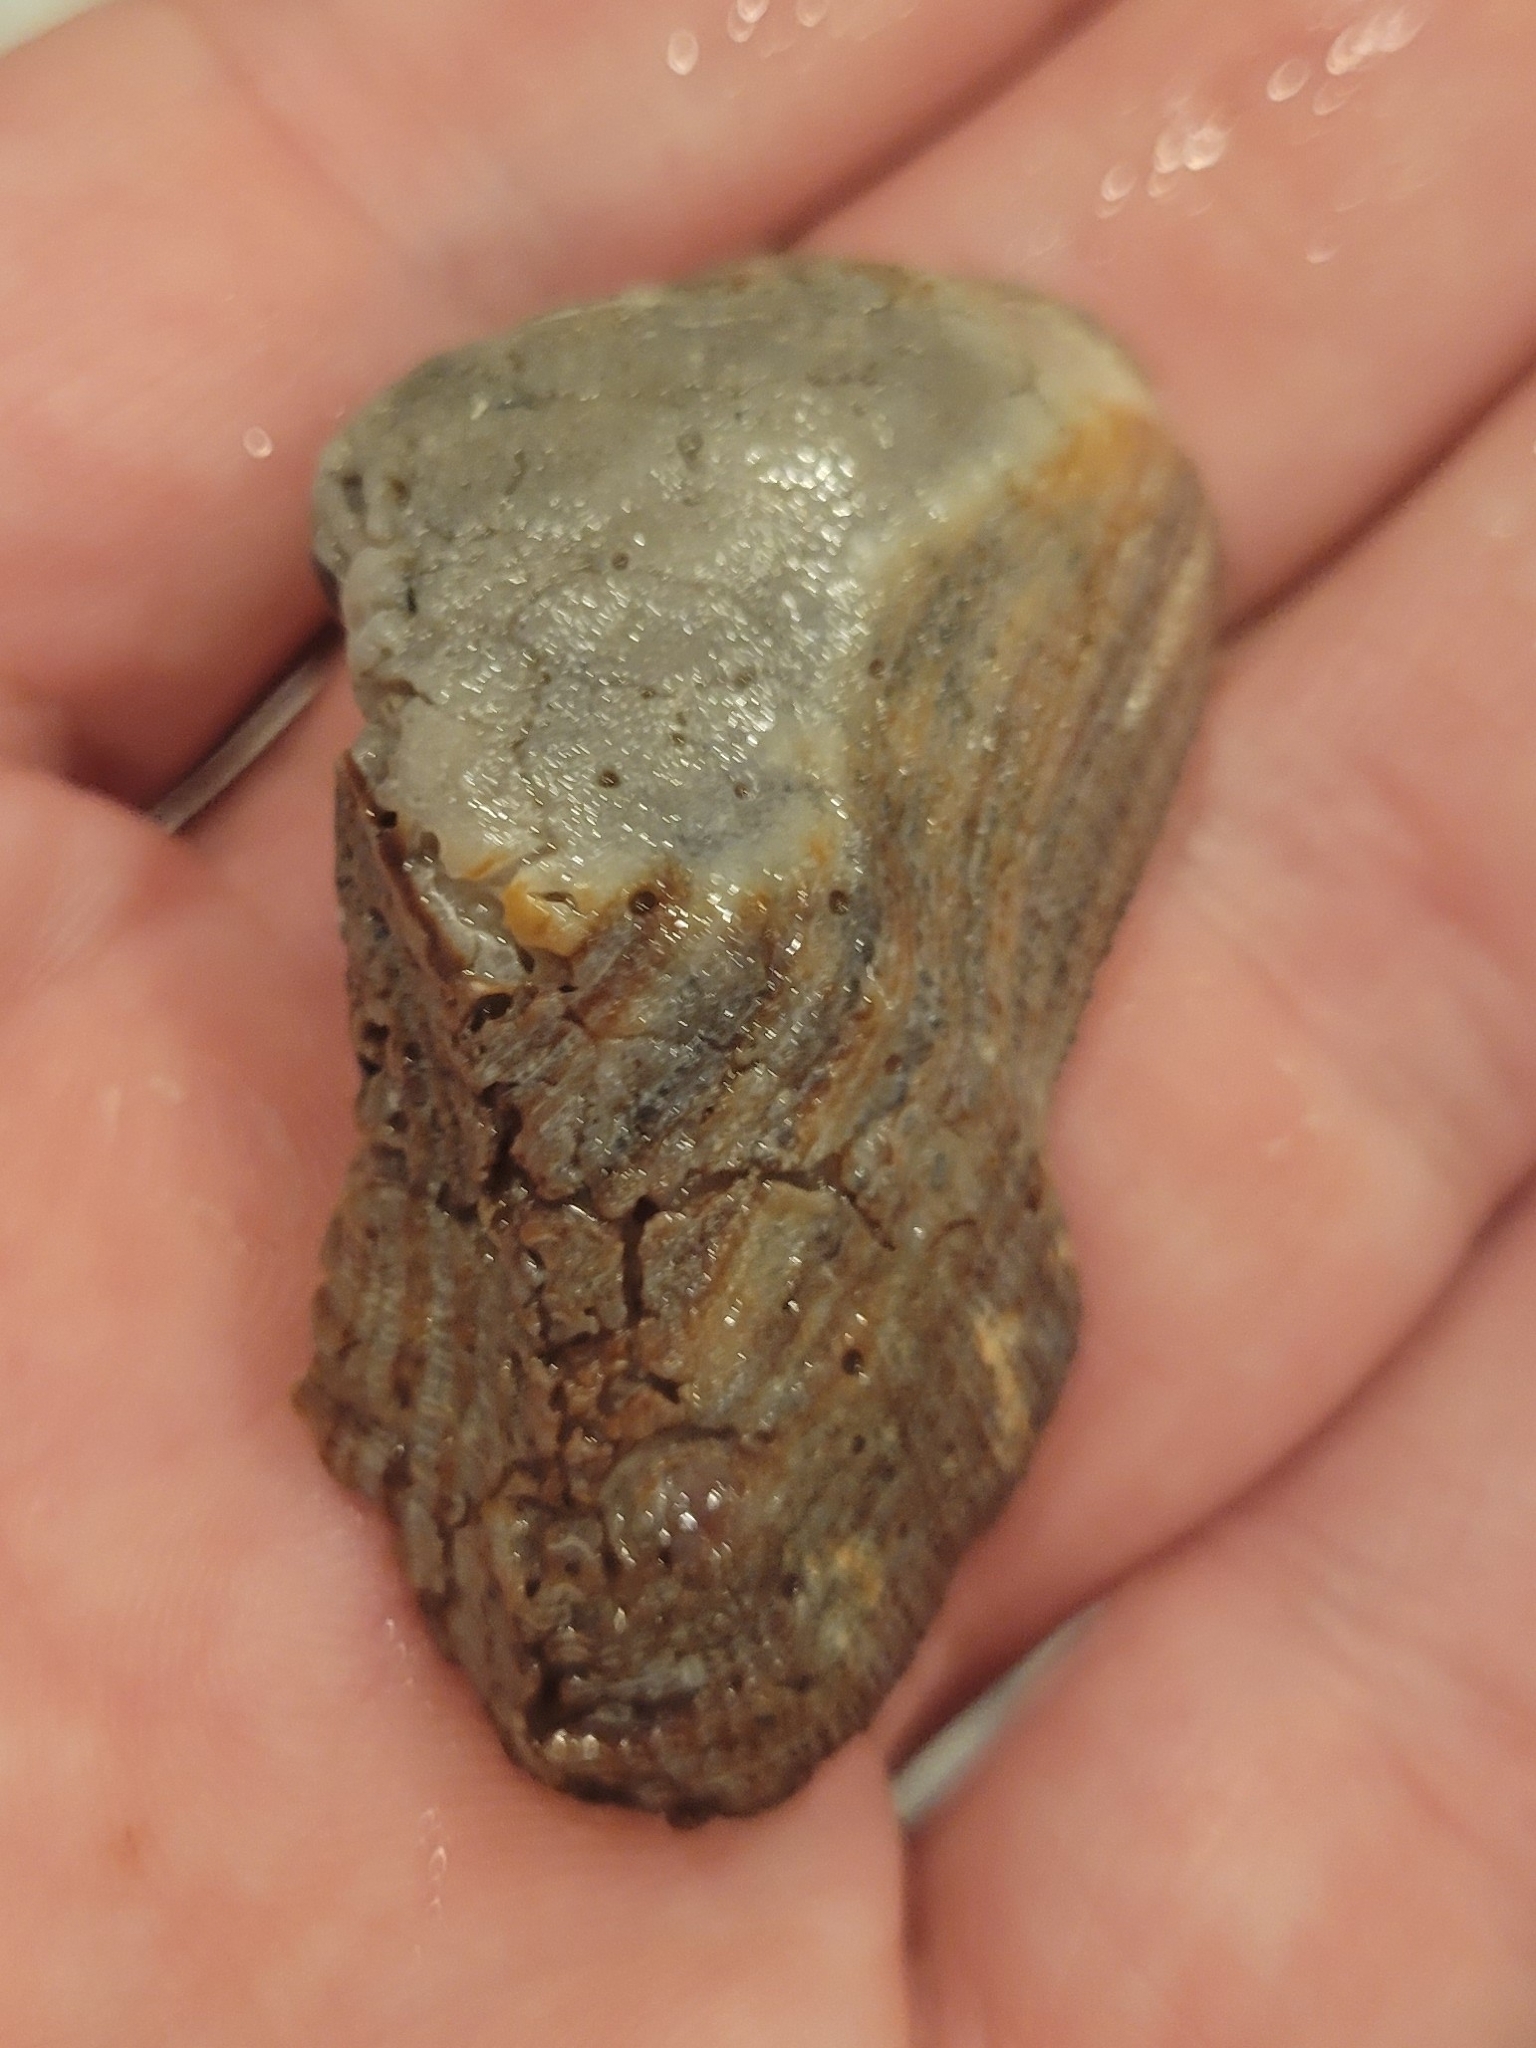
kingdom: Animalia
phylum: Mollusca
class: Bivalvia
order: Arcida
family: Arcidae
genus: Lamarcka
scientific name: Lamarcka imbricata
